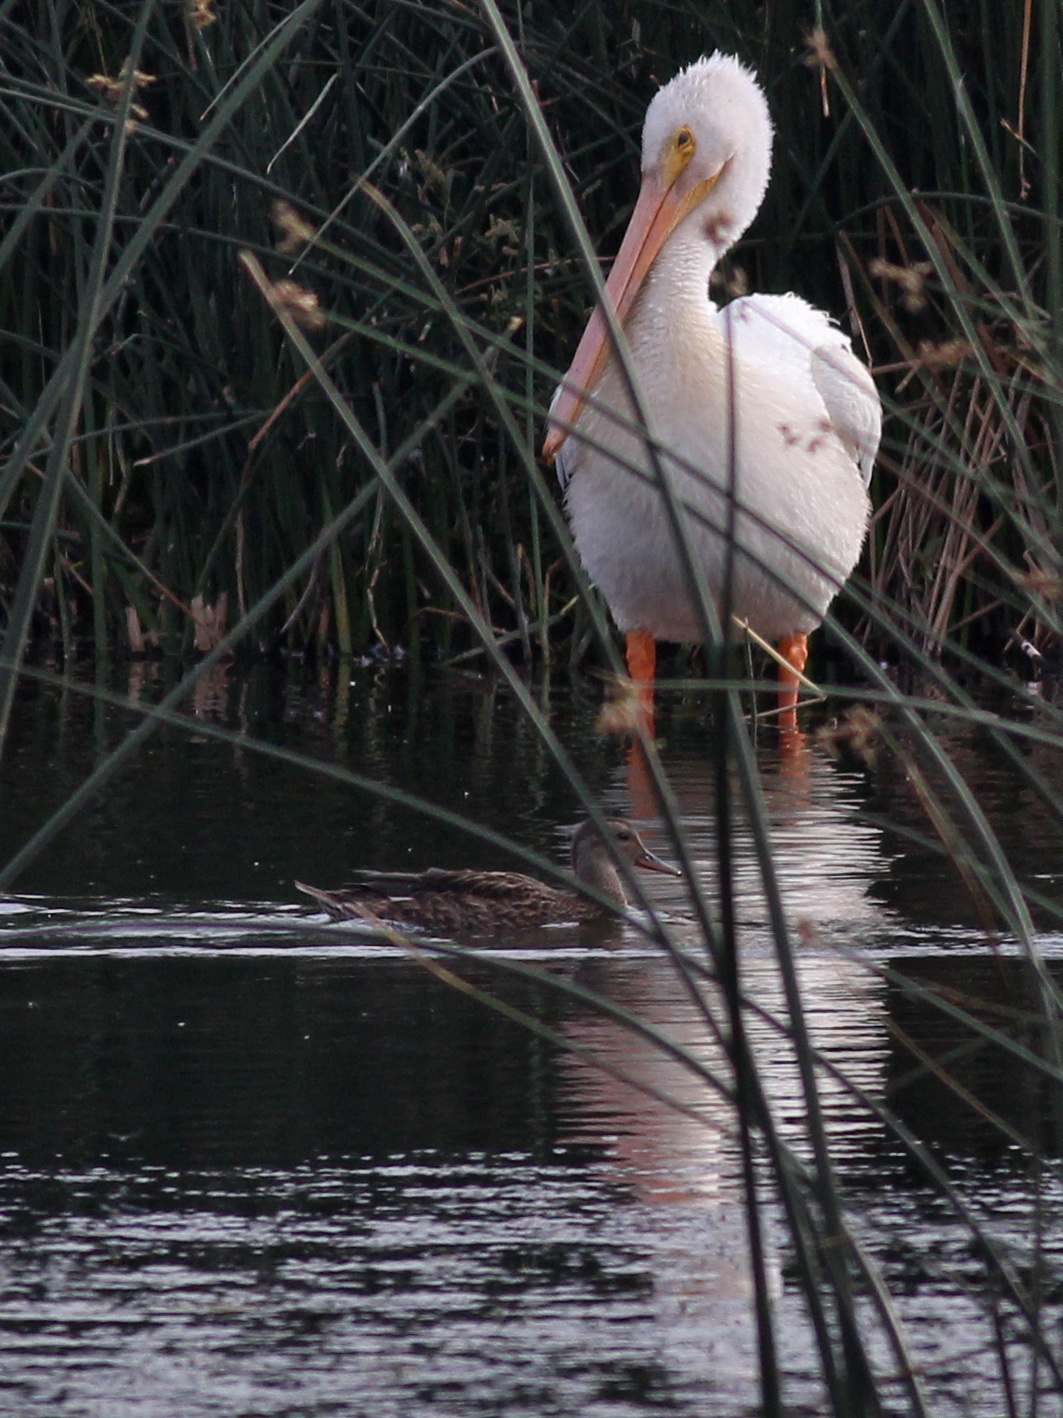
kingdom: Animalia
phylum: Chordata
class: Aves
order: Pelecaniformes
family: Pelecanidae
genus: Pelecanus
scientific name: Pelecanus erythrorhynchos
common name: American white pelican
